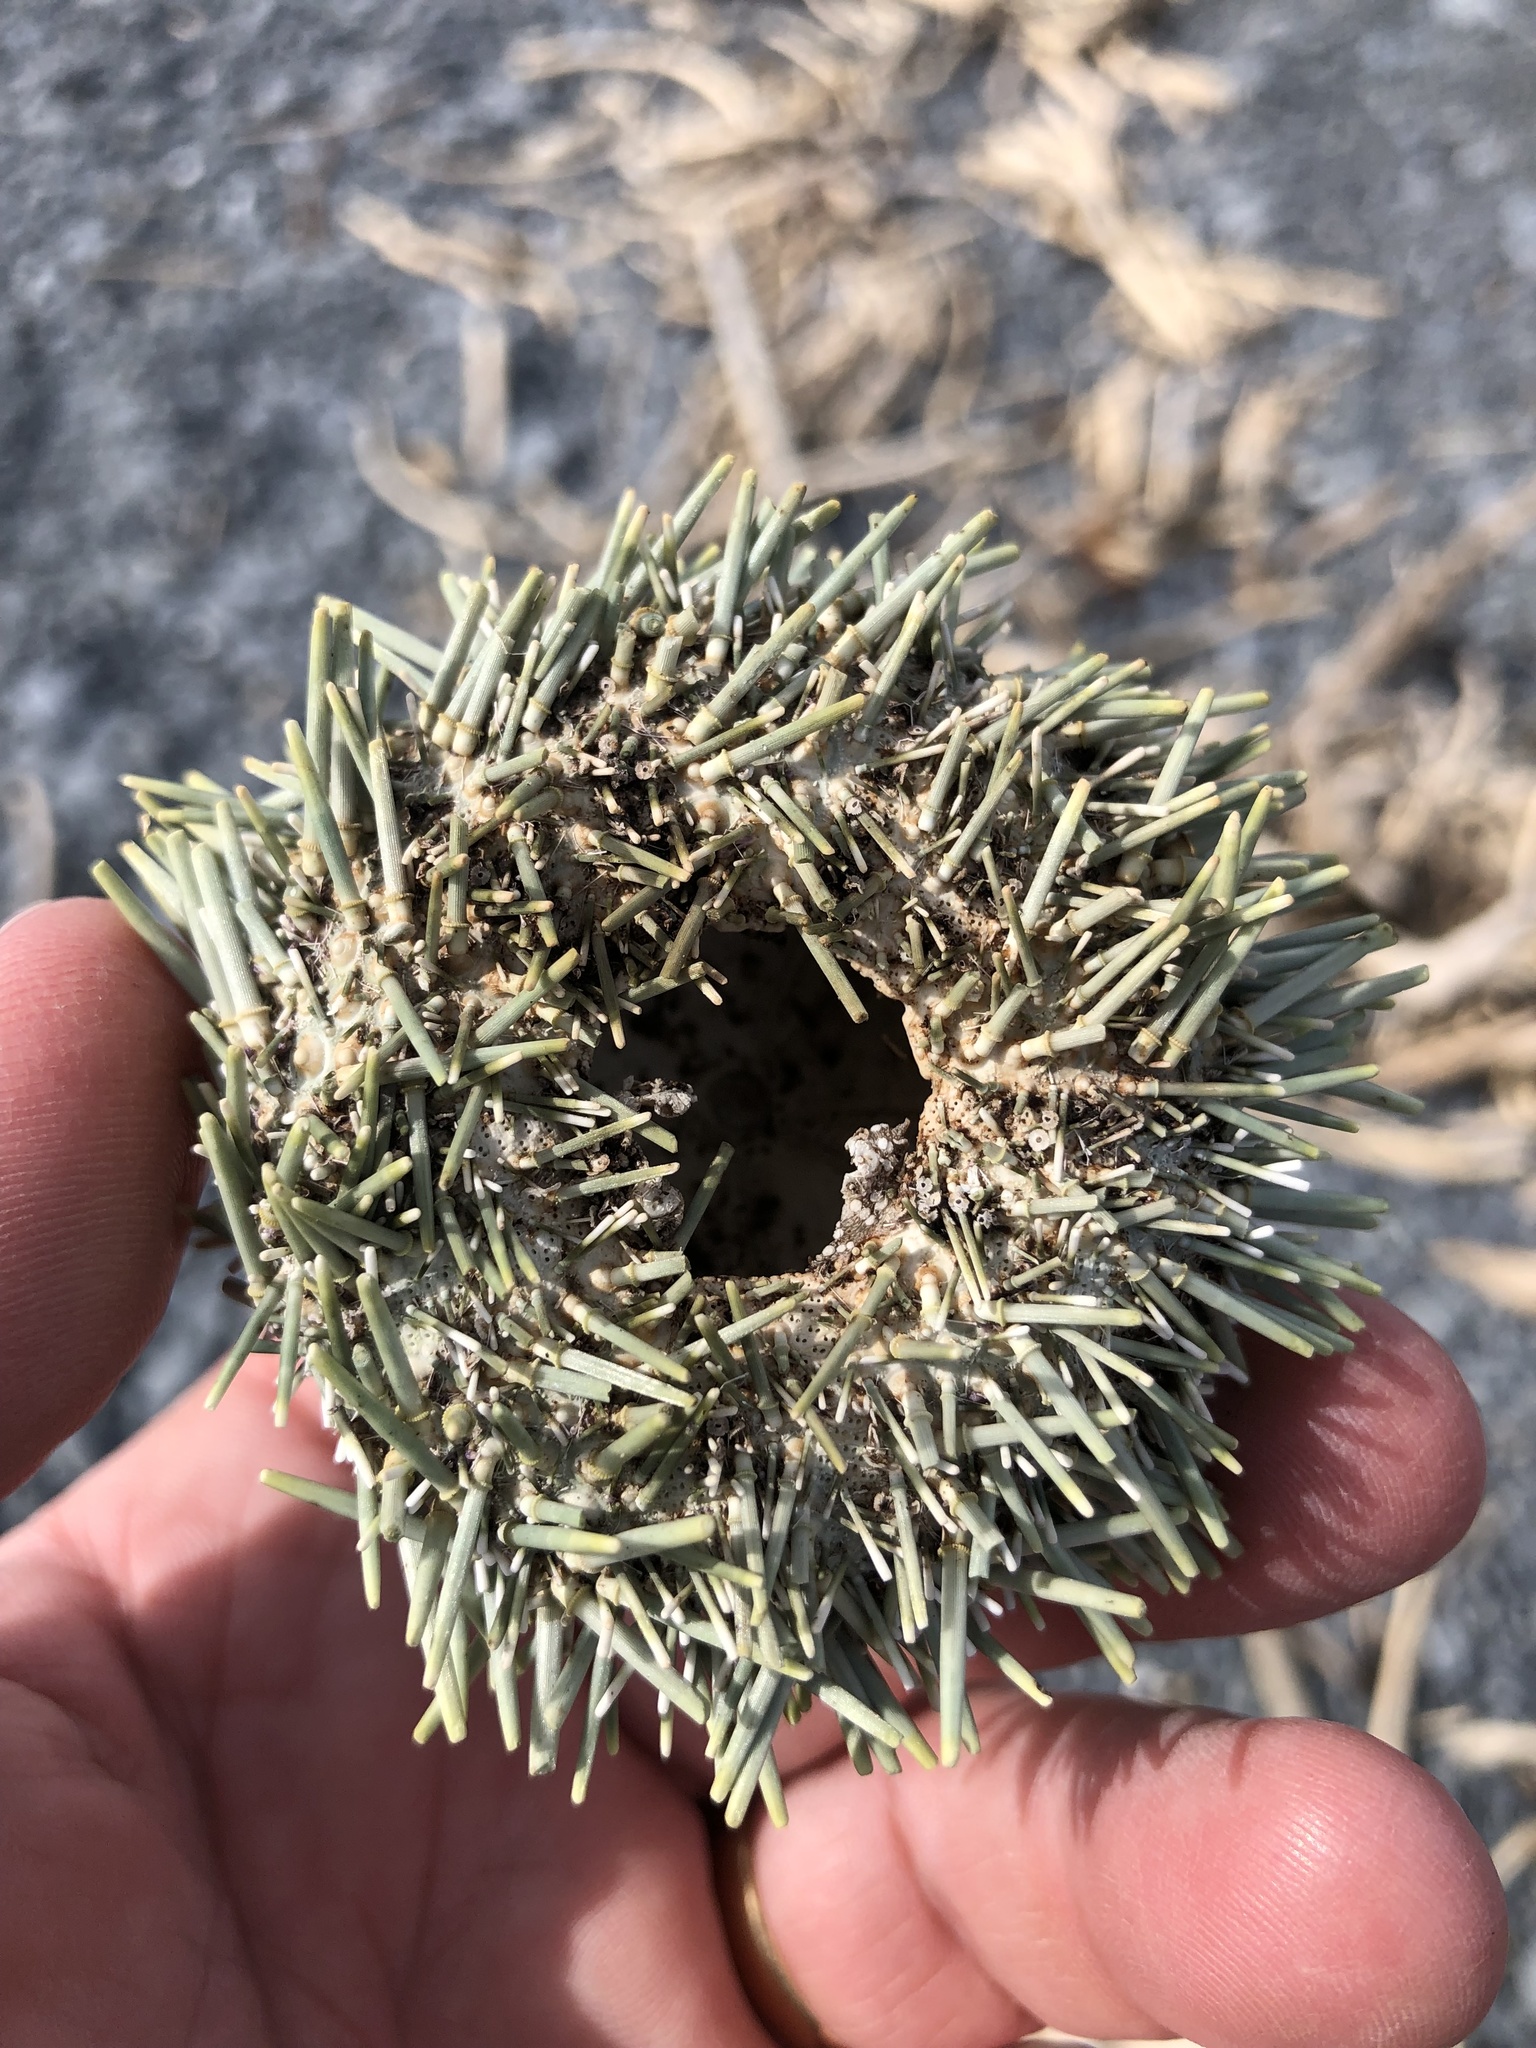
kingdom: Animalia
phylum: Echinodermata
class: Echinoidea
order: Camarodonta
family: Echinometridae
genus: Evechinus
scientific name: Evechinus chloroticus
